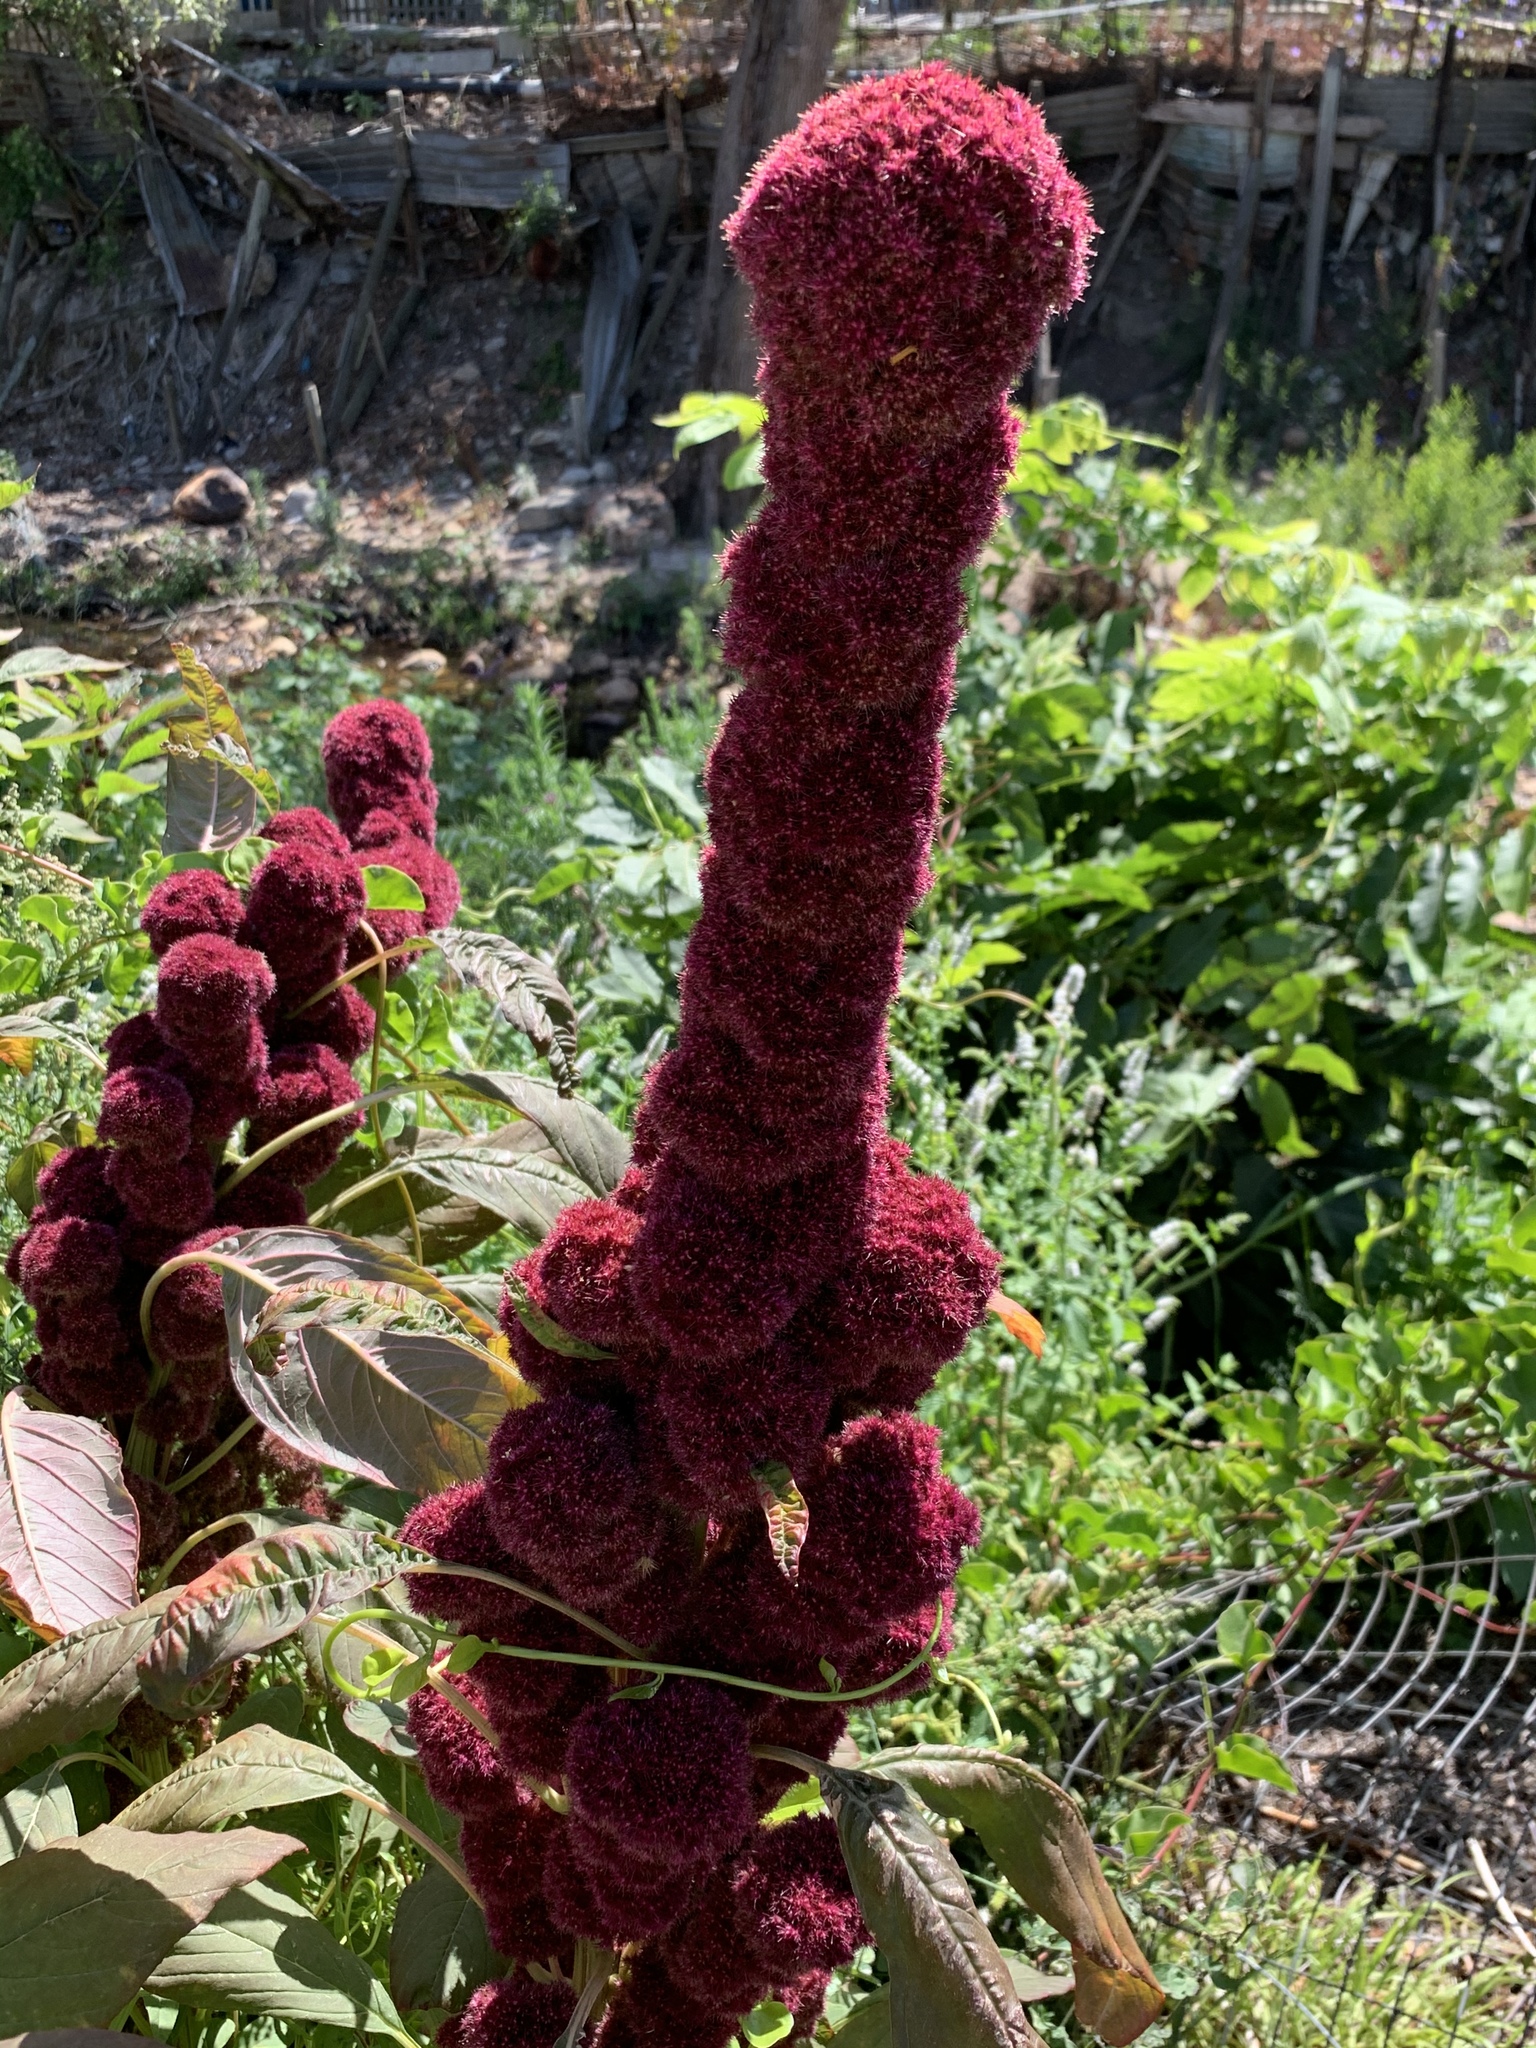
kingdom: Plantae
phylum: Tracheophyta
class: Magnoliopsida
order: Caryophyllales
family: Amaranthaceae
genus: Amaranthus
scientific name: Amaranthus cruentus
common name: Purple amaranth
